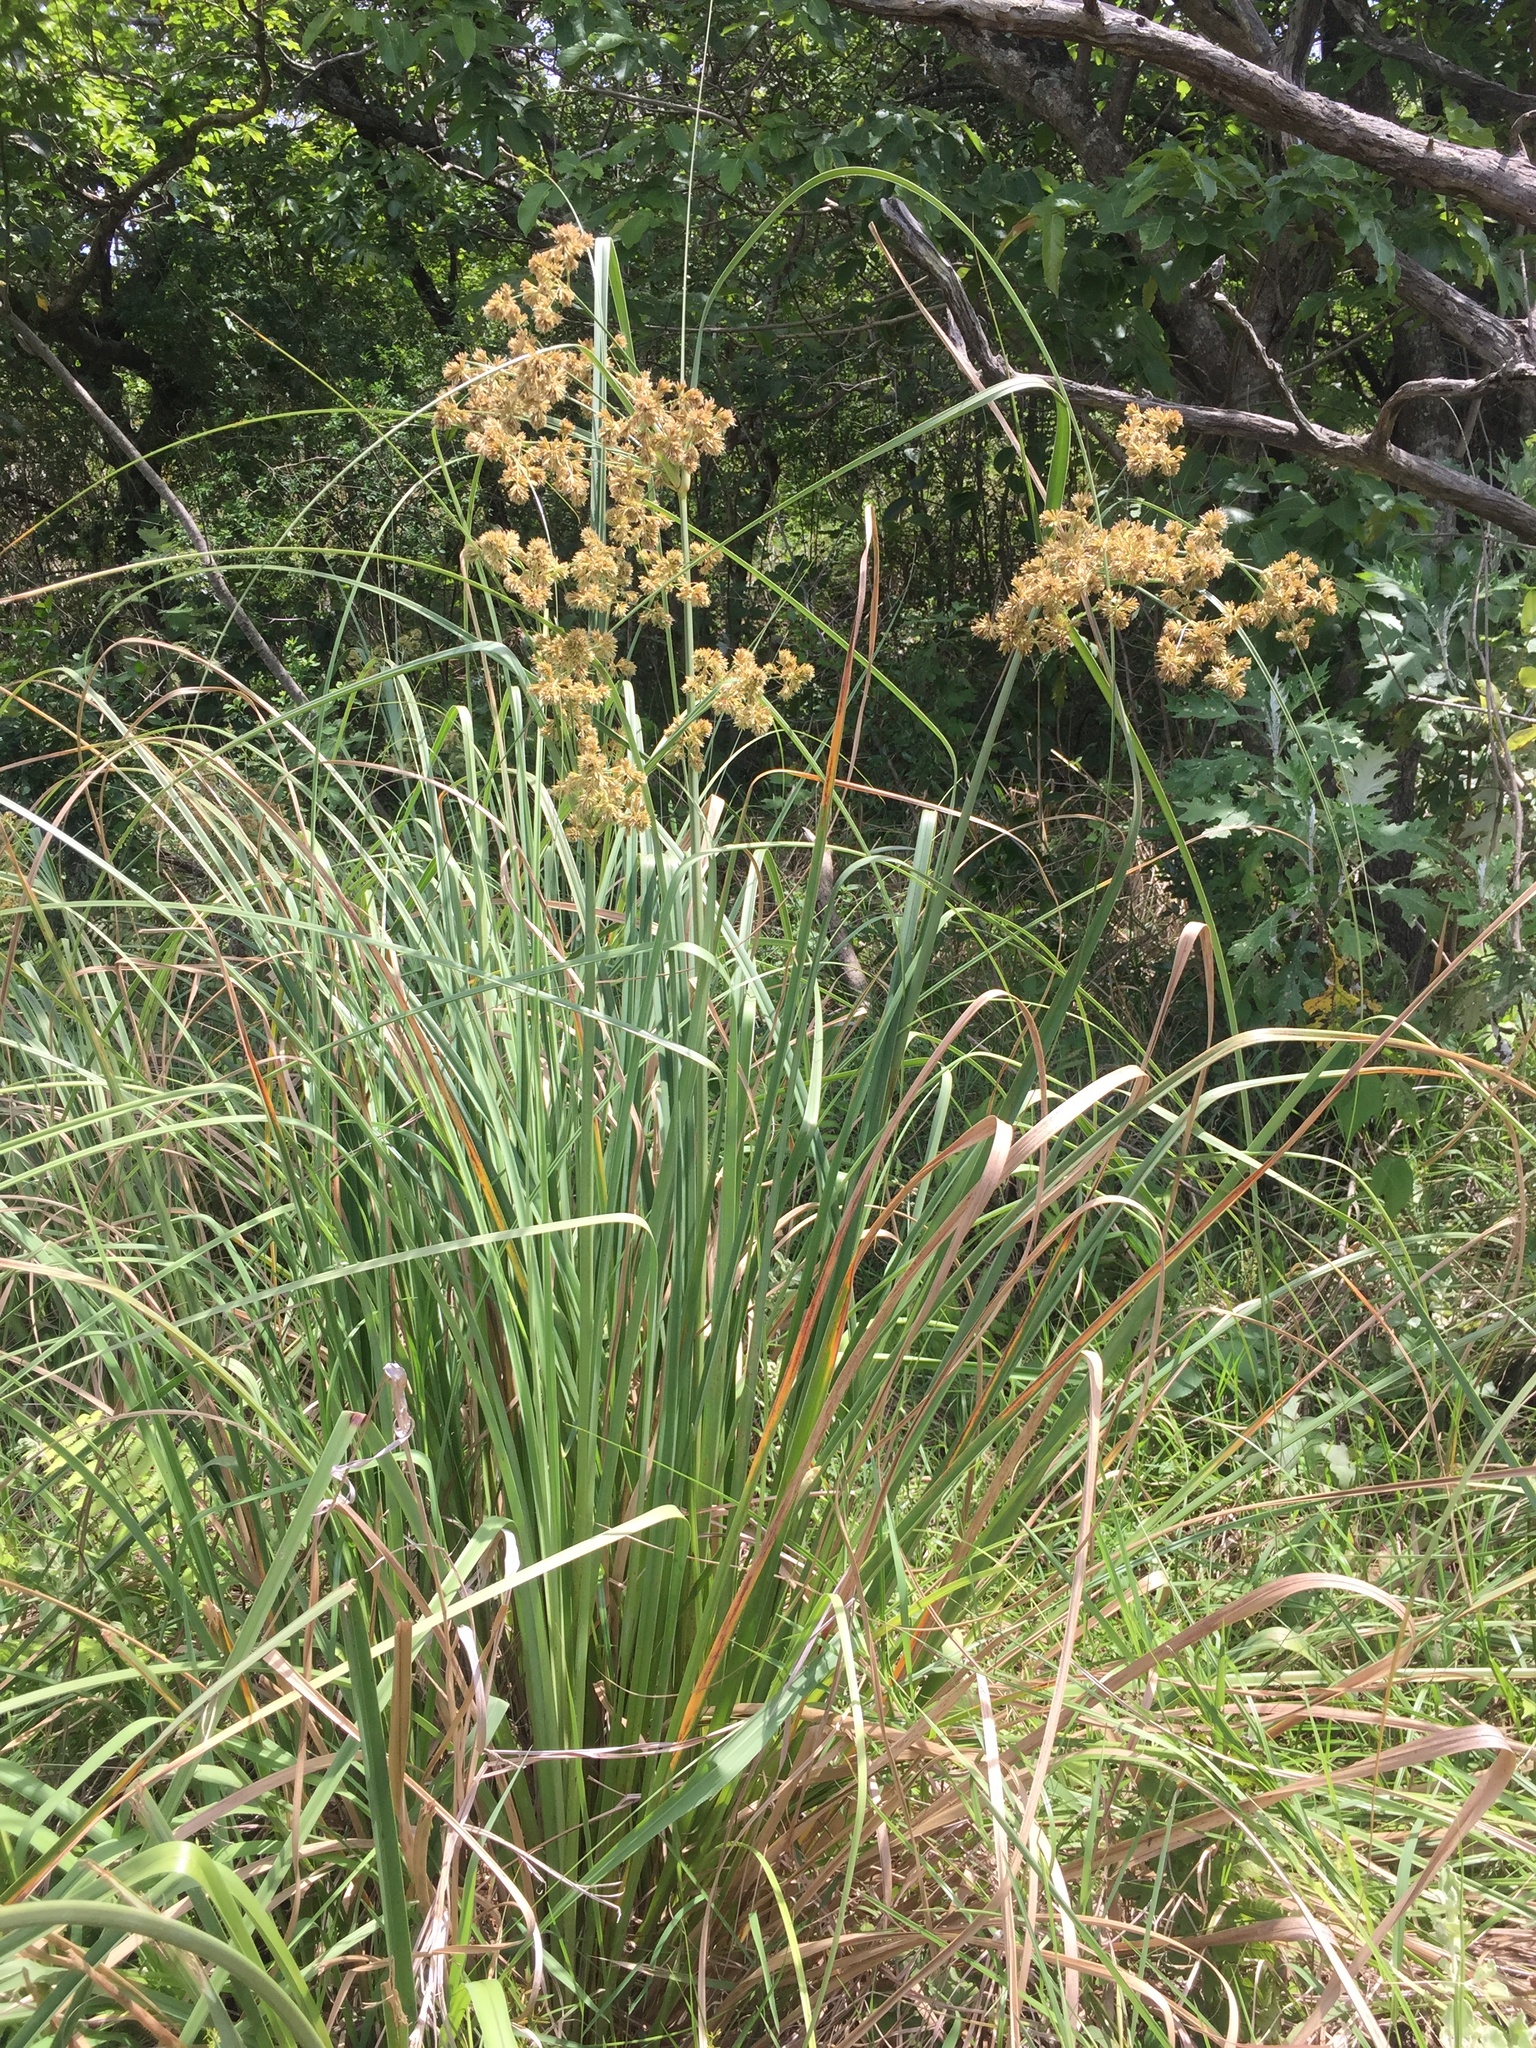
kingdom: Plantae
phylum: Tracheophyta
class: Liliopsida
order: Poales
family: Cyperaceae
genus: Cyperus
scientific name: Cyperus vorsteri
